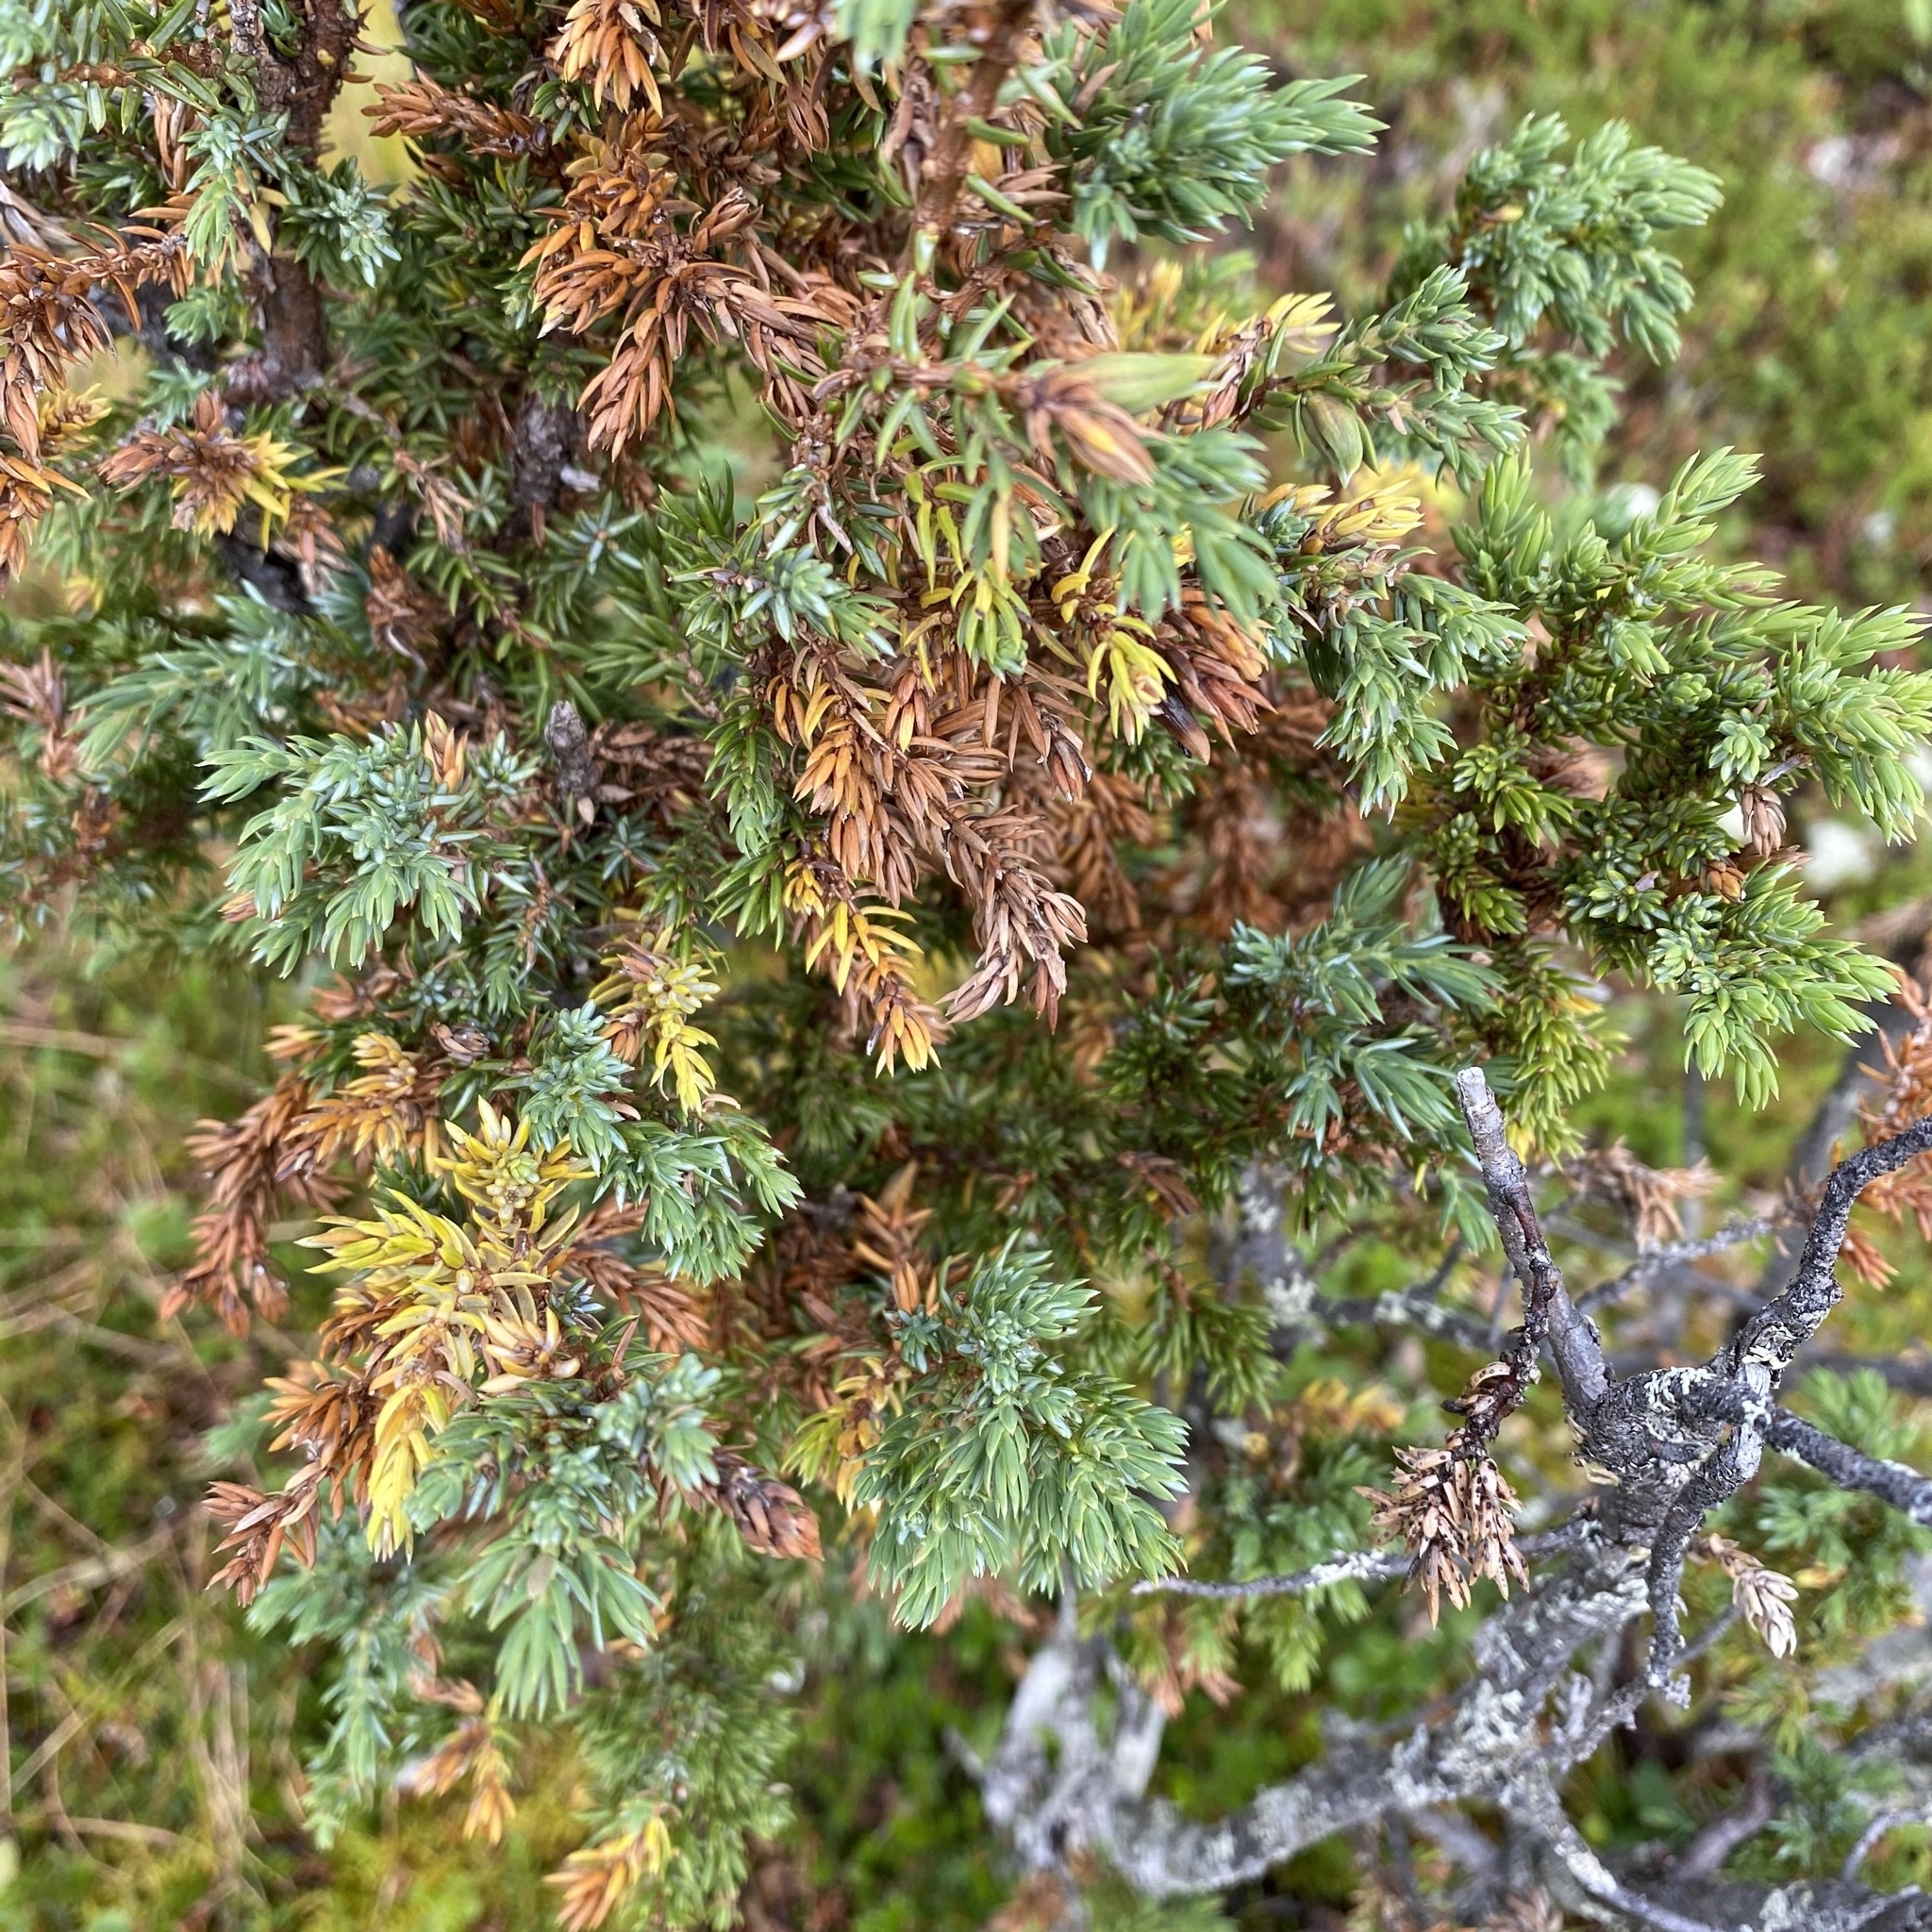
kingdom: Plantae
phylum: Tracheophyta
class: Pinopsida
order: Pinales
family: Cupressaceae
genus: Juniperus
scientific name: Juniperus communis
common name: Common juniper
